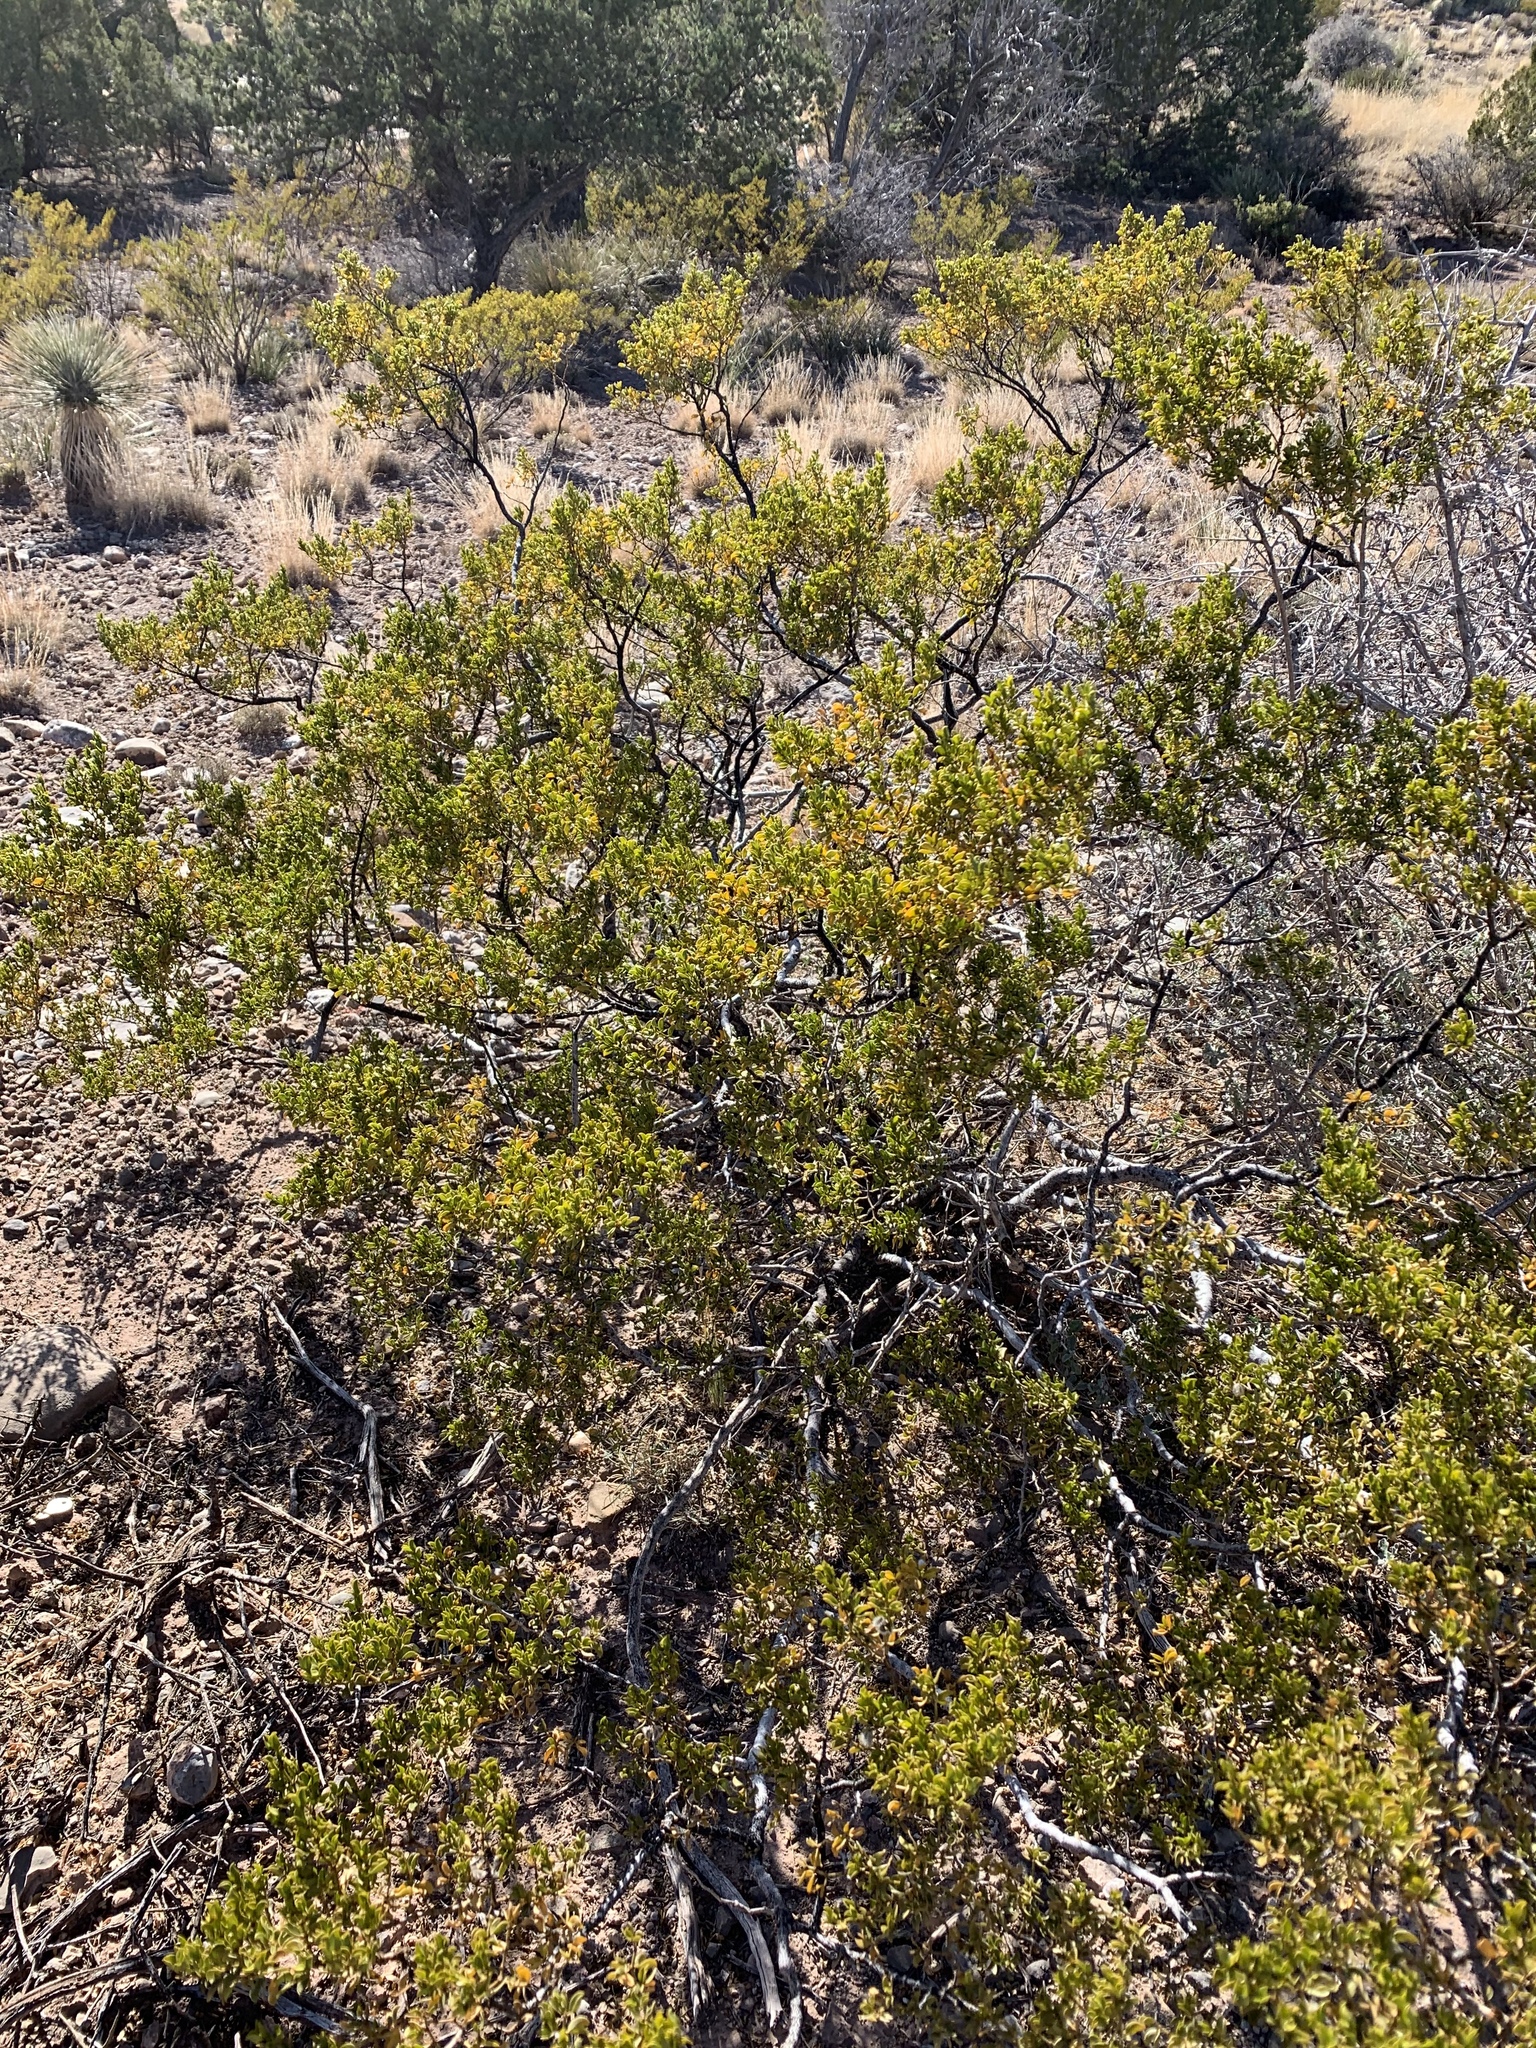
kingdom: Plantae
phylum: Tracheophyta
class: Magnoliopsida
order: Zygophyllales
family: Zygophyllaceae
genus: Larrea
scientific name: Larrea tridentata
